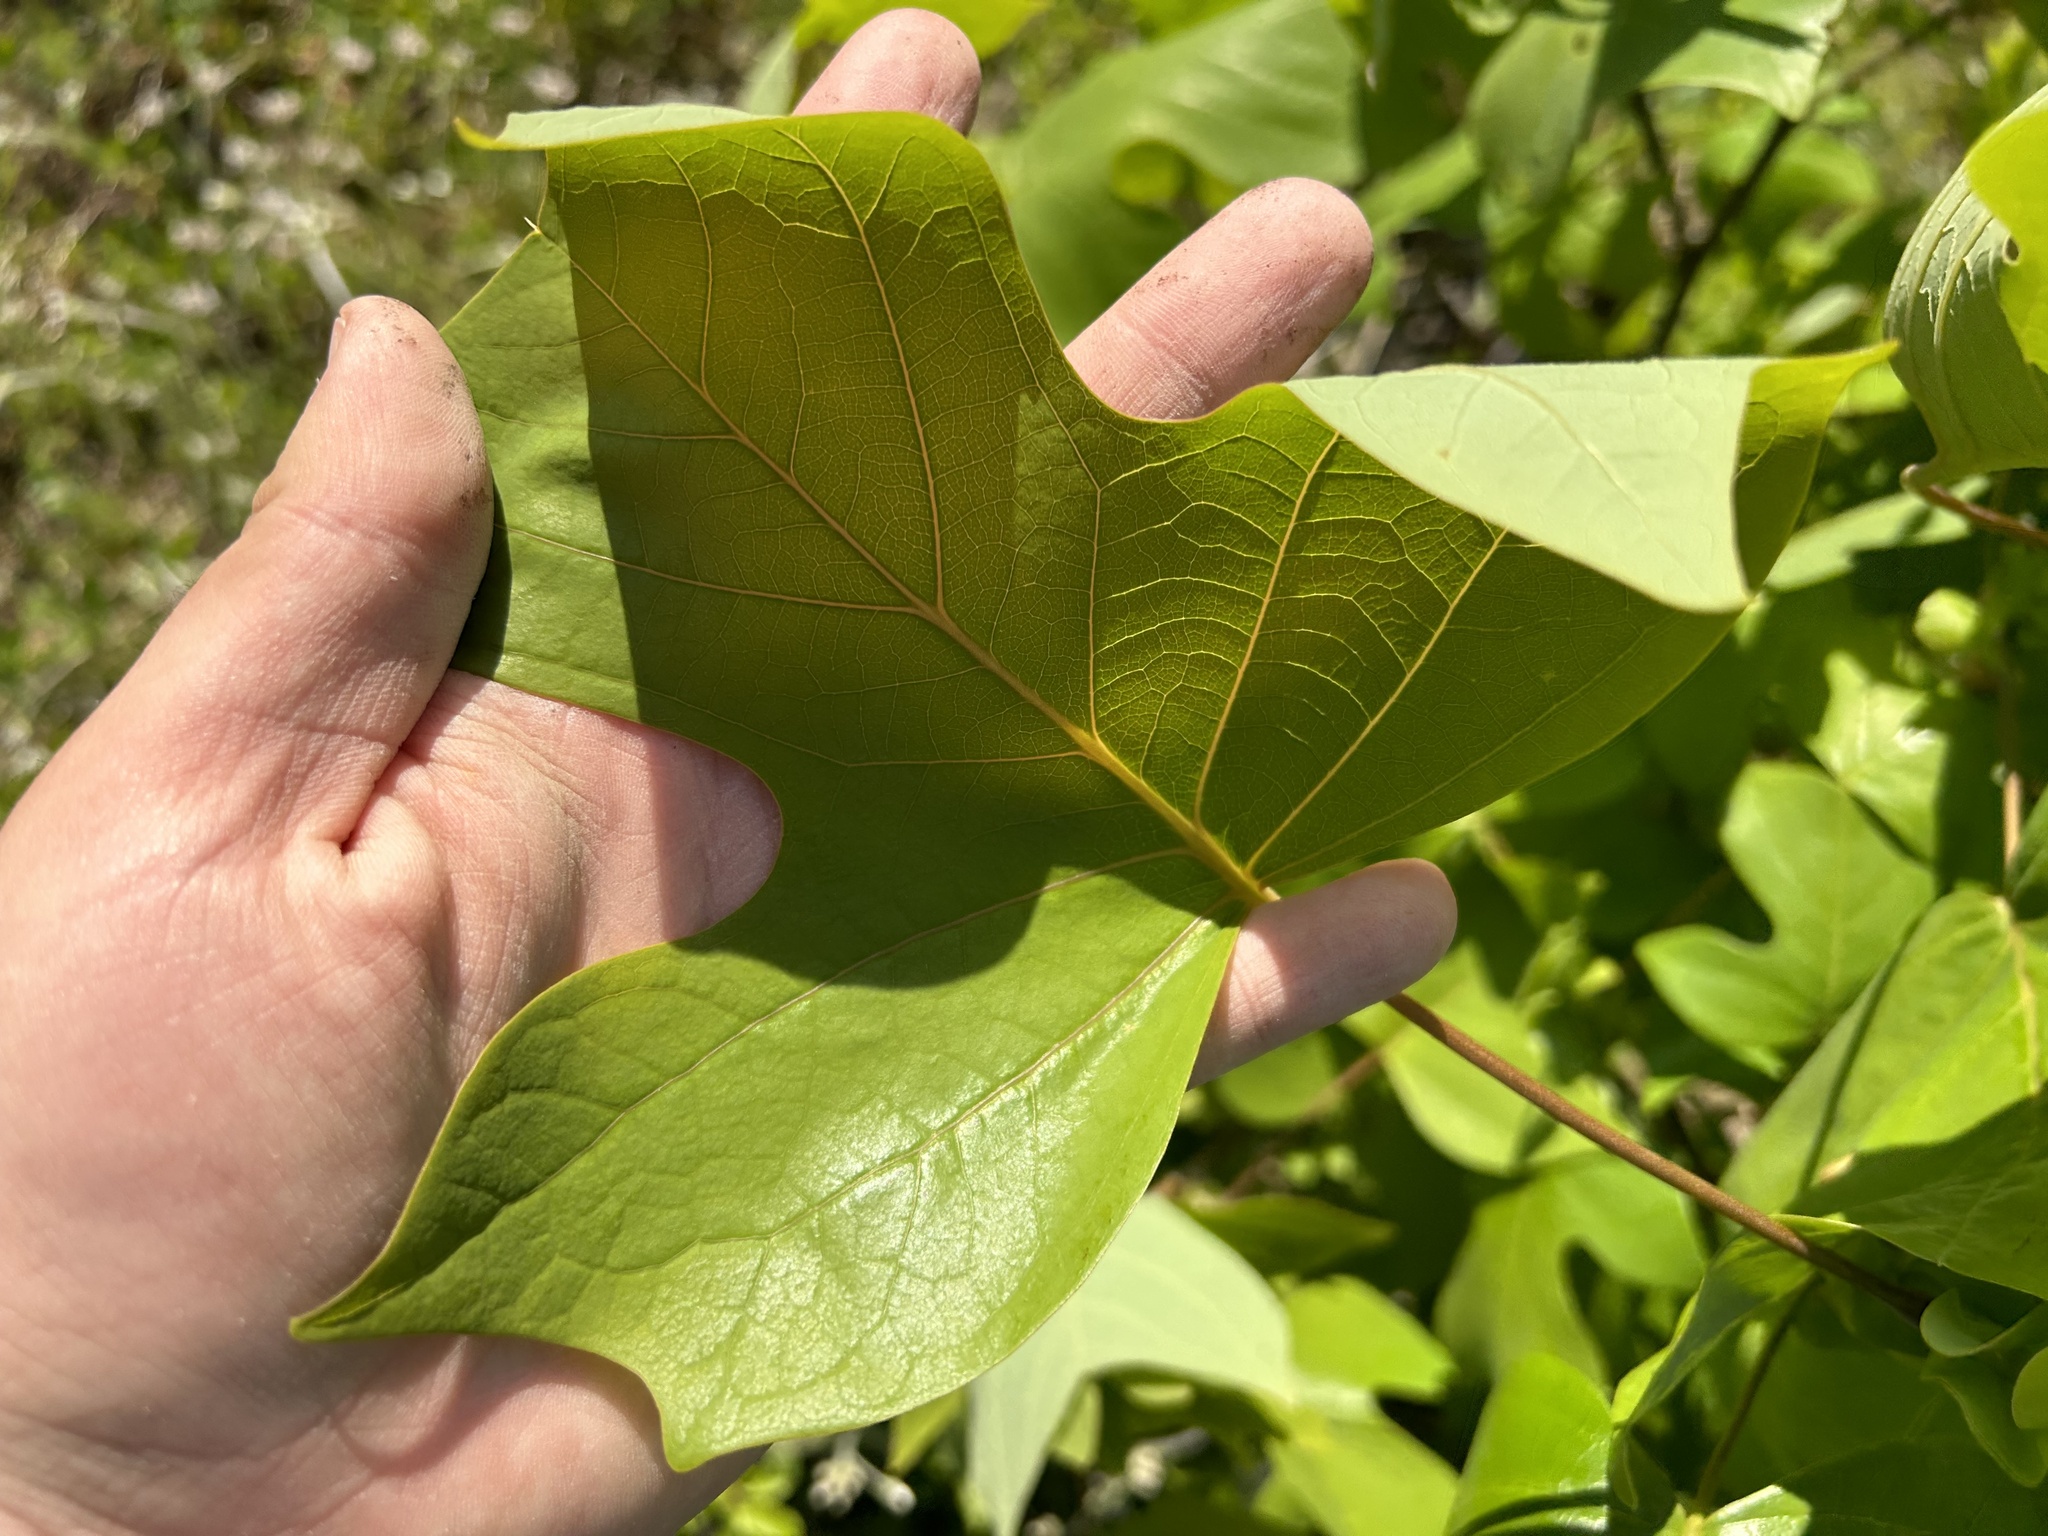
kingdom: Plantae
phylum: Tracheophyta
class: Magnoliopsida
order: Magnoliales
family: Magnoliaceae
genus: Liriodendron
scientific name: Liriodendron tulipifera
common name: Tulip tree
